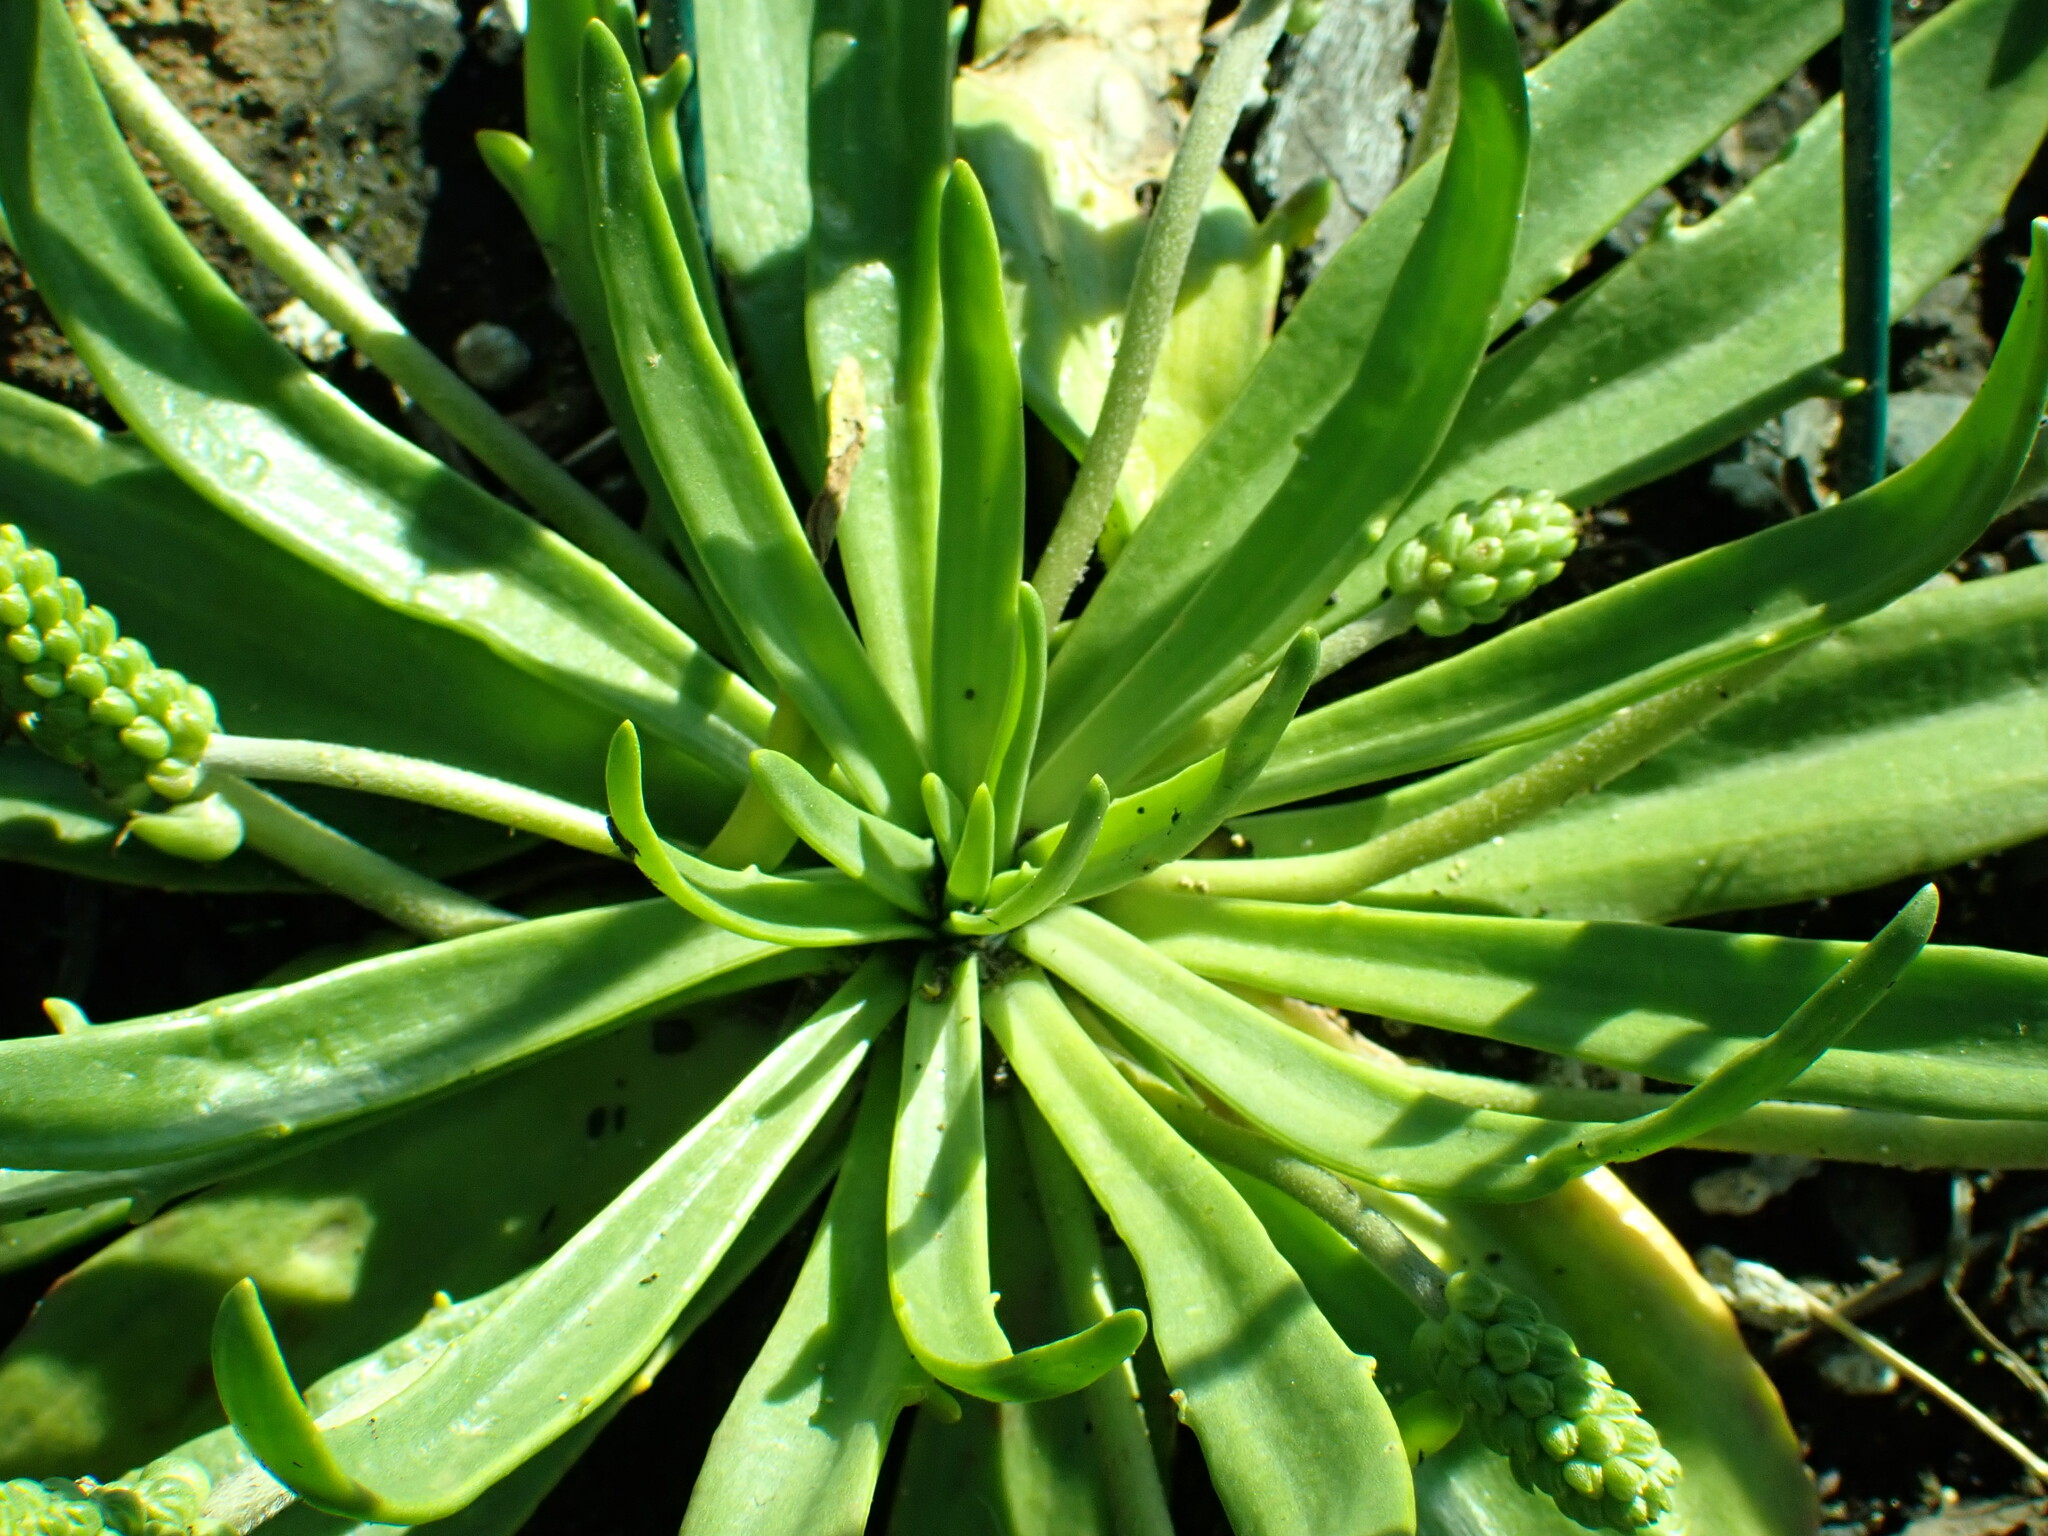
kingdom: Plantae
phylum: Tracheophyta
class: Magnoliopsida
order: Lamiales
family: Plantaginaceae
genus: Plantago
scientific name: Plantago maritima
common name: Sea plantain
